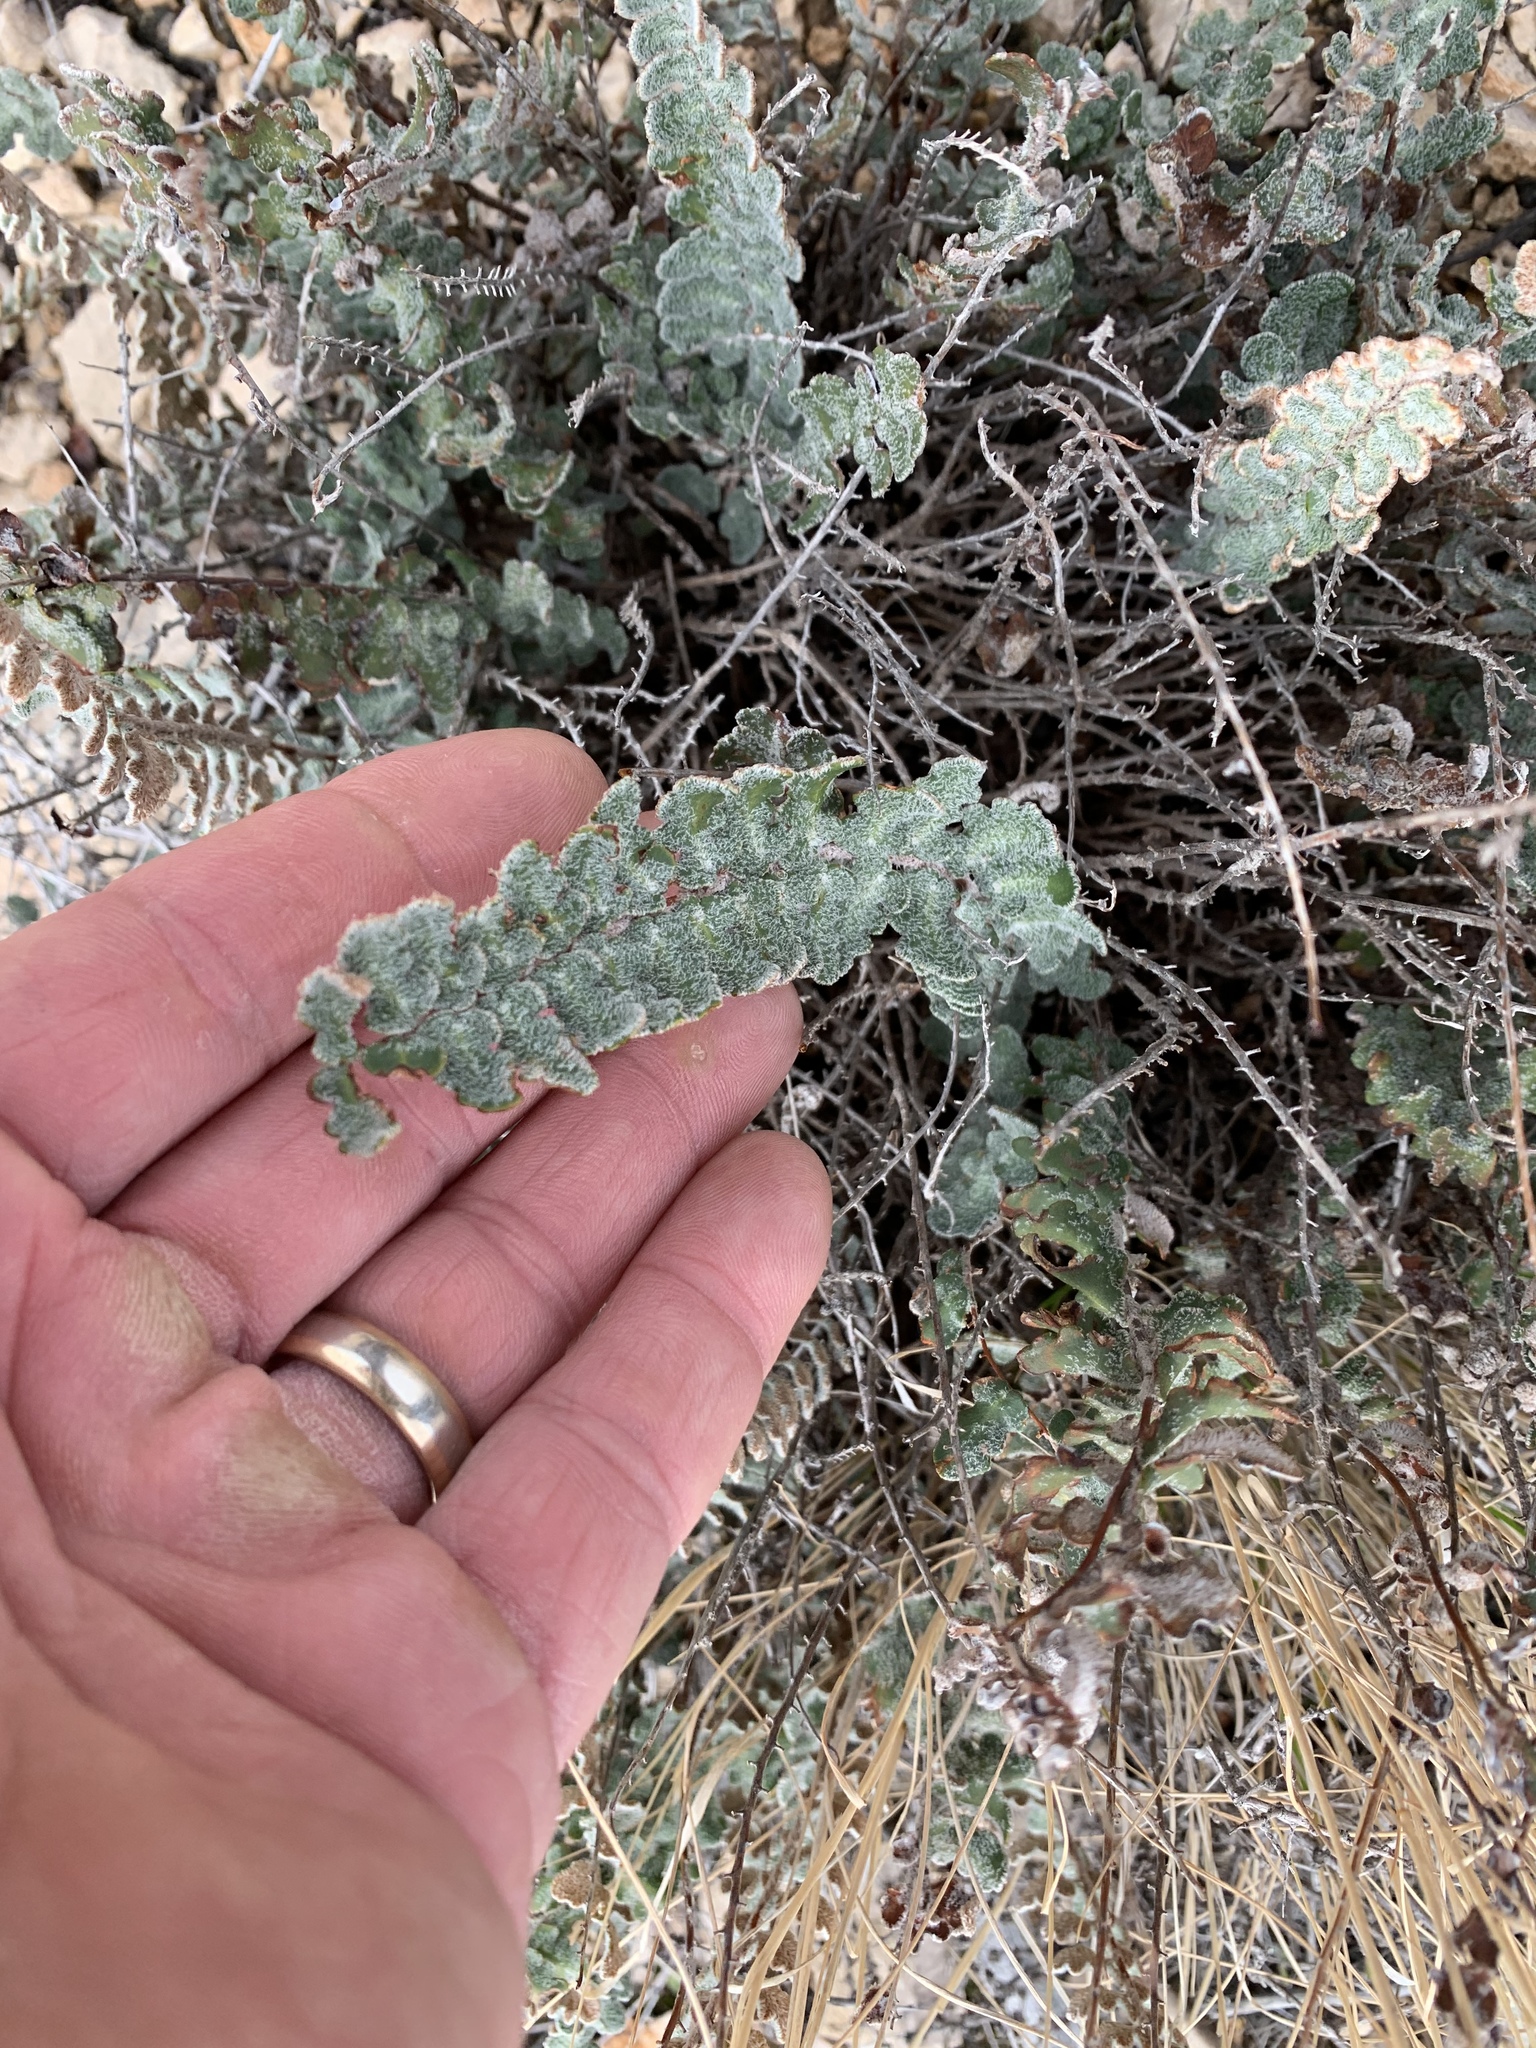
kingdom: Plantae
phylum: Tracheophyta
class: Polypodiopsida
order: Polypodiales
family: Pteridaceae
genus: Astrolepis
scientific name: Astrolepis integerrima
